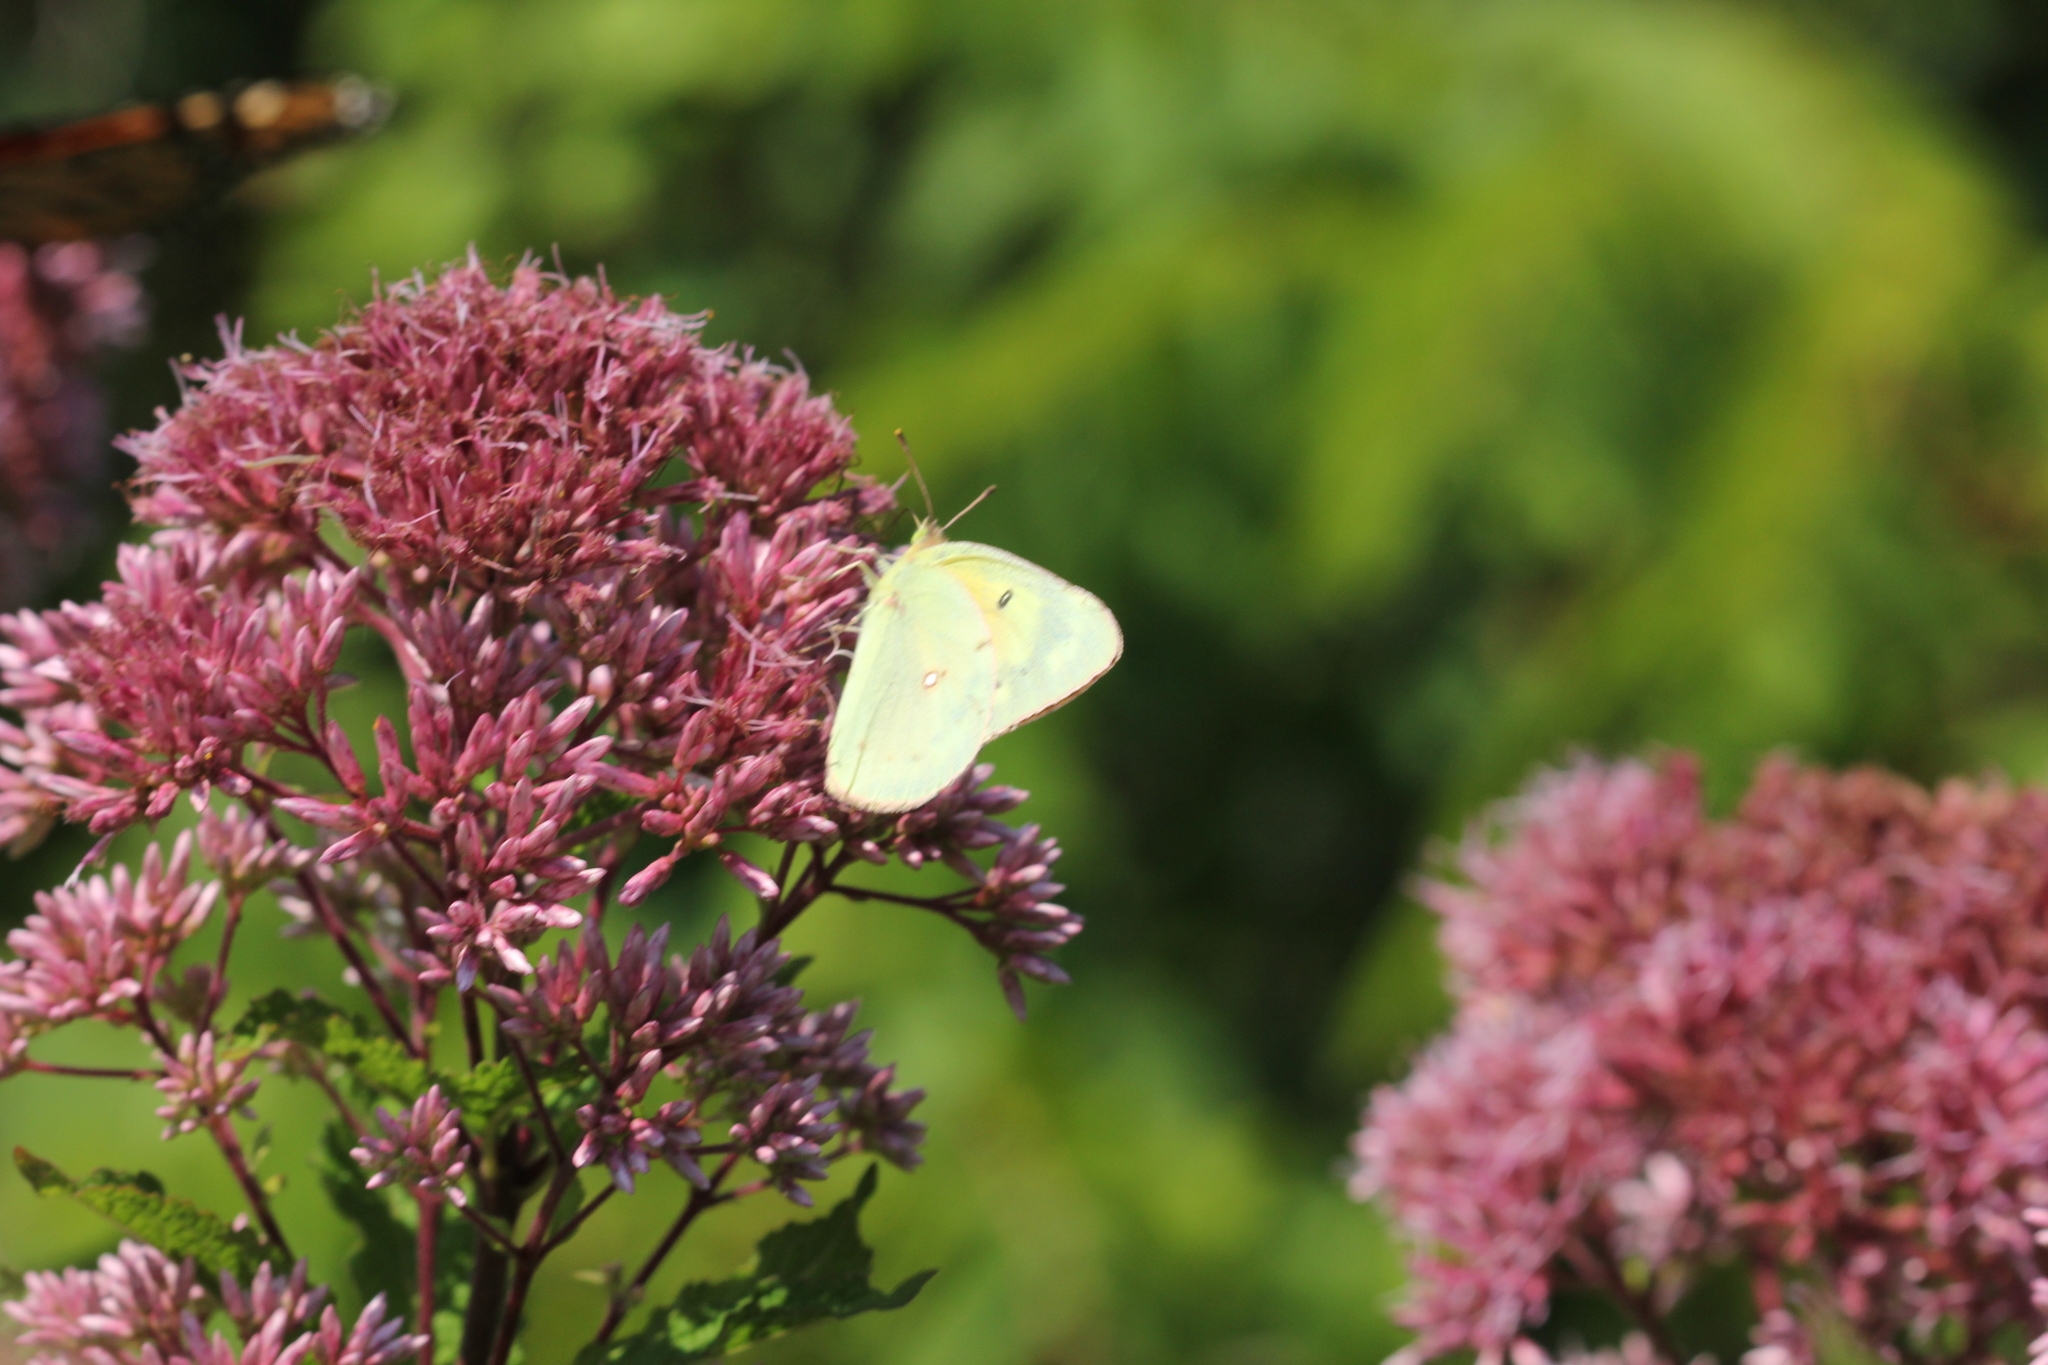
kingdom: Animalia
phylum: Arthropoda
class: Insecta
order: Lepidoptera
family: Pieridae
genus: Colias
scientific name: Colias eurytheme
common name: Alfalfa butterfly
